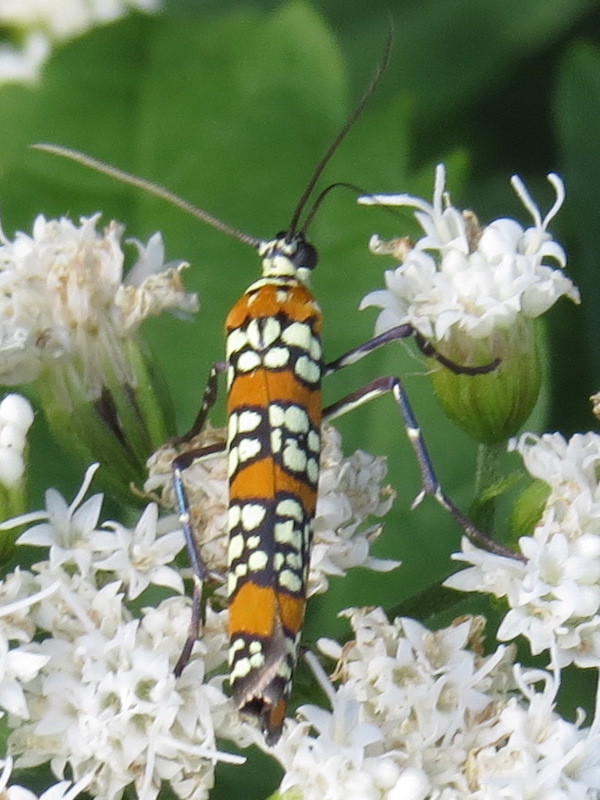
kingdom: Animalia
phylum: Arthropoda
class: Insecta
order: Lepidoptera
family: Attevidae
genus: Atteva
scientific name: Atteva punctella
